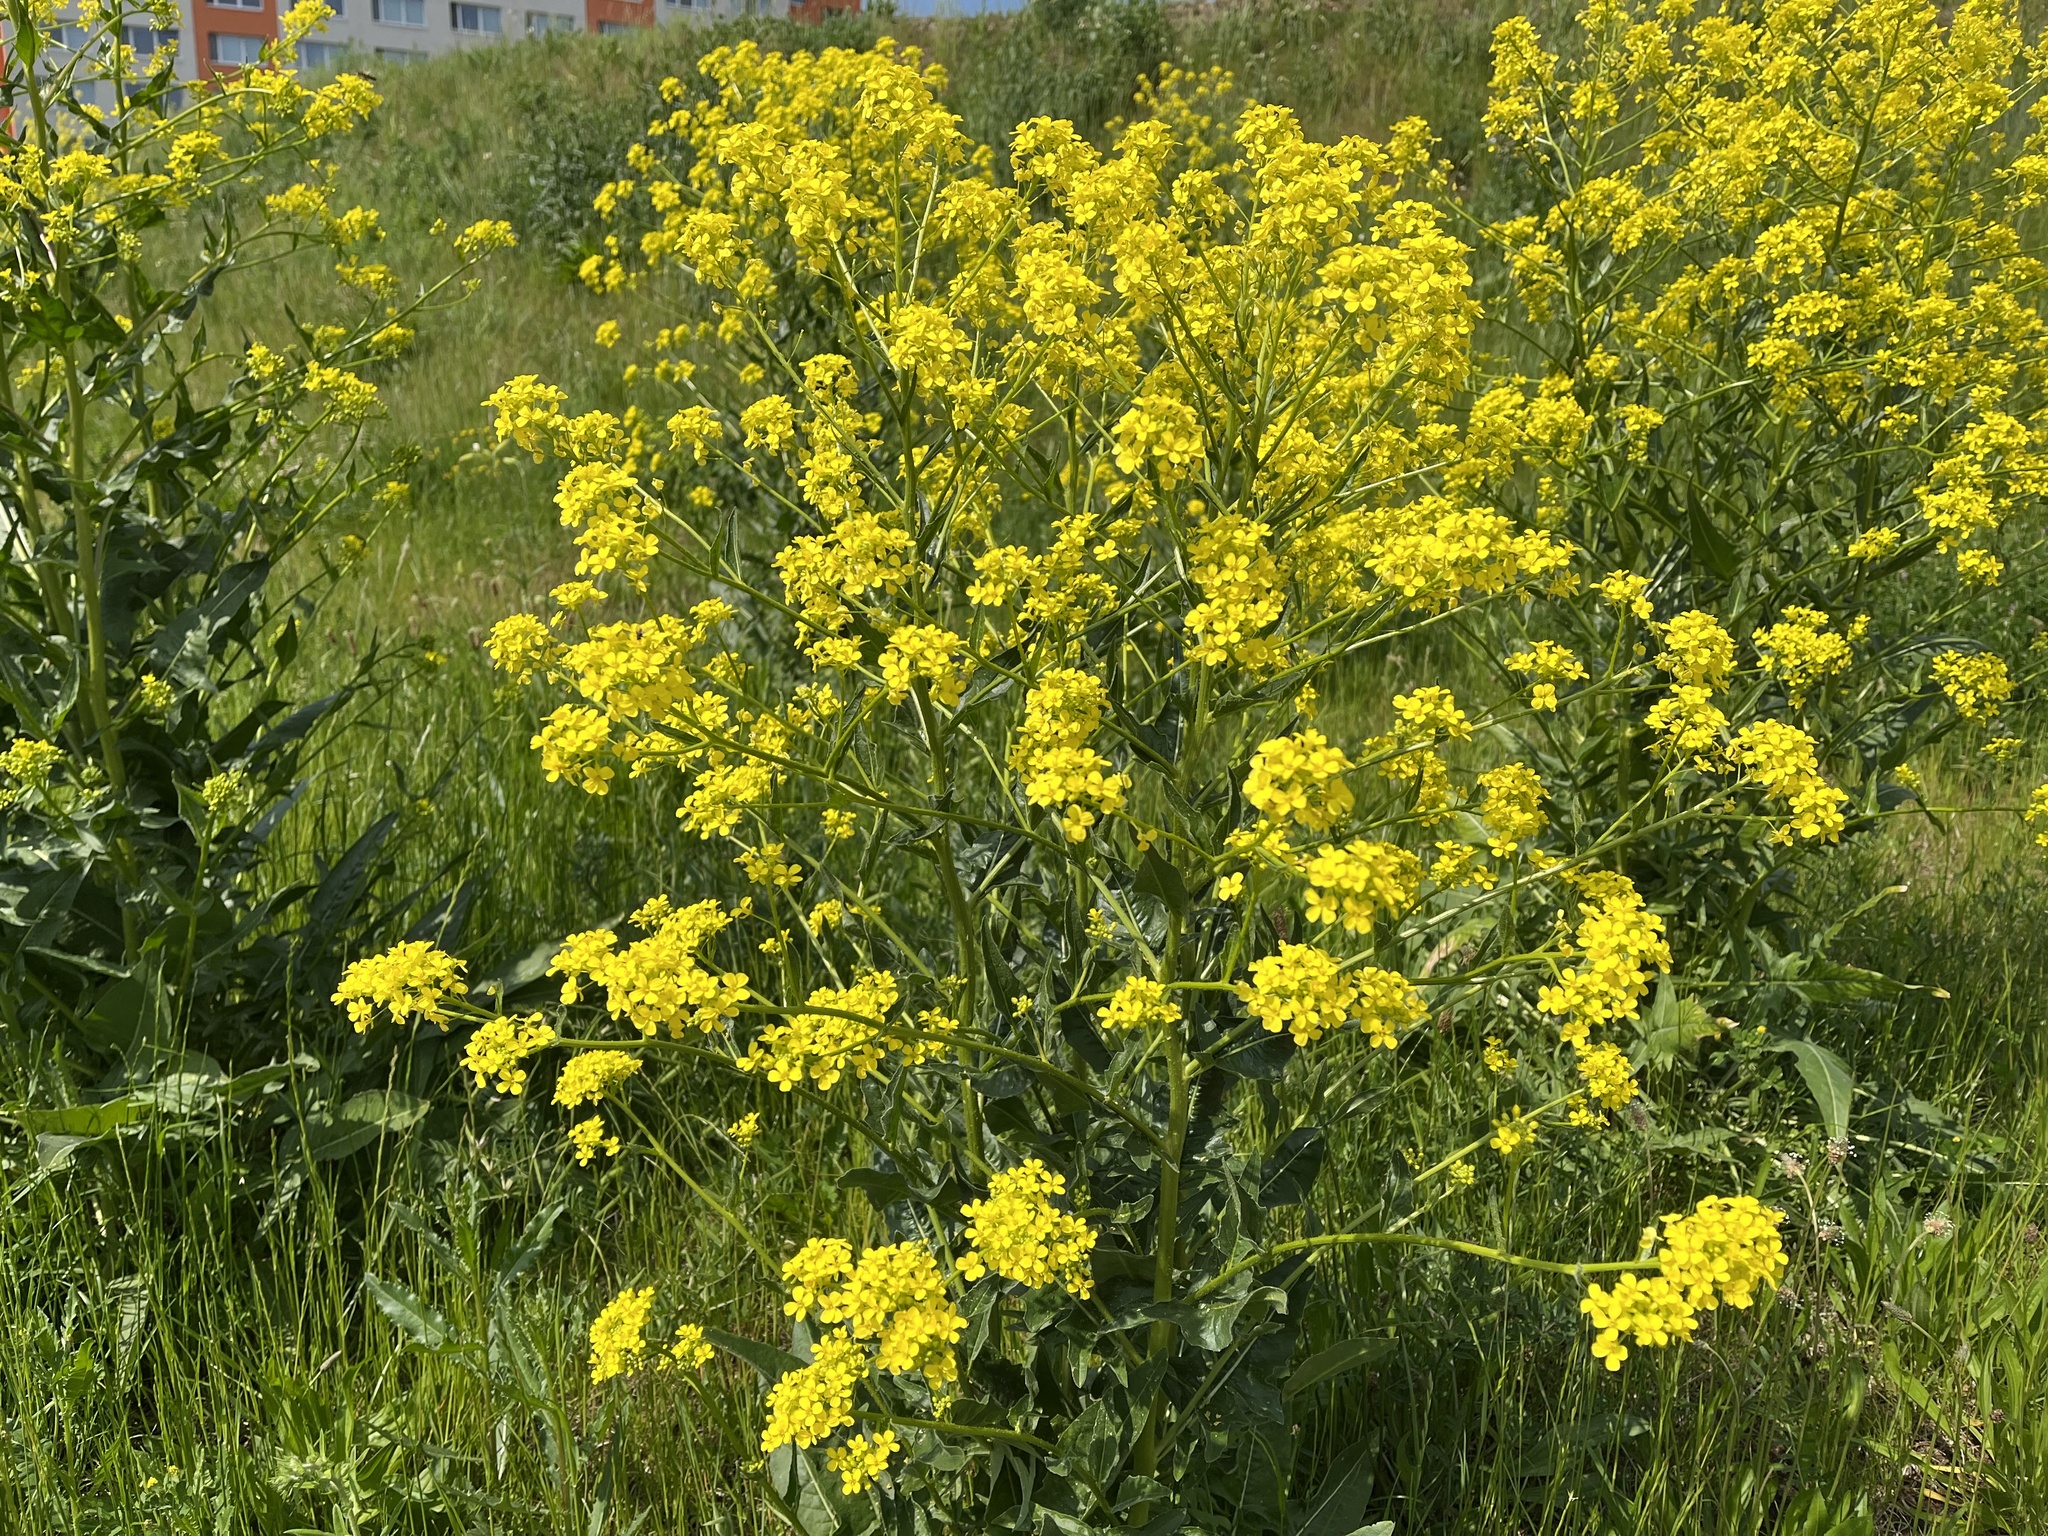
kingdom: Plantae
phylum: Tracheophyta
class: Magnoliopsida
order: Brassicales
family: Brassicaceae
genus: Bunias
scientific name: Bunias orientalis
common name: Warty-cabbage
